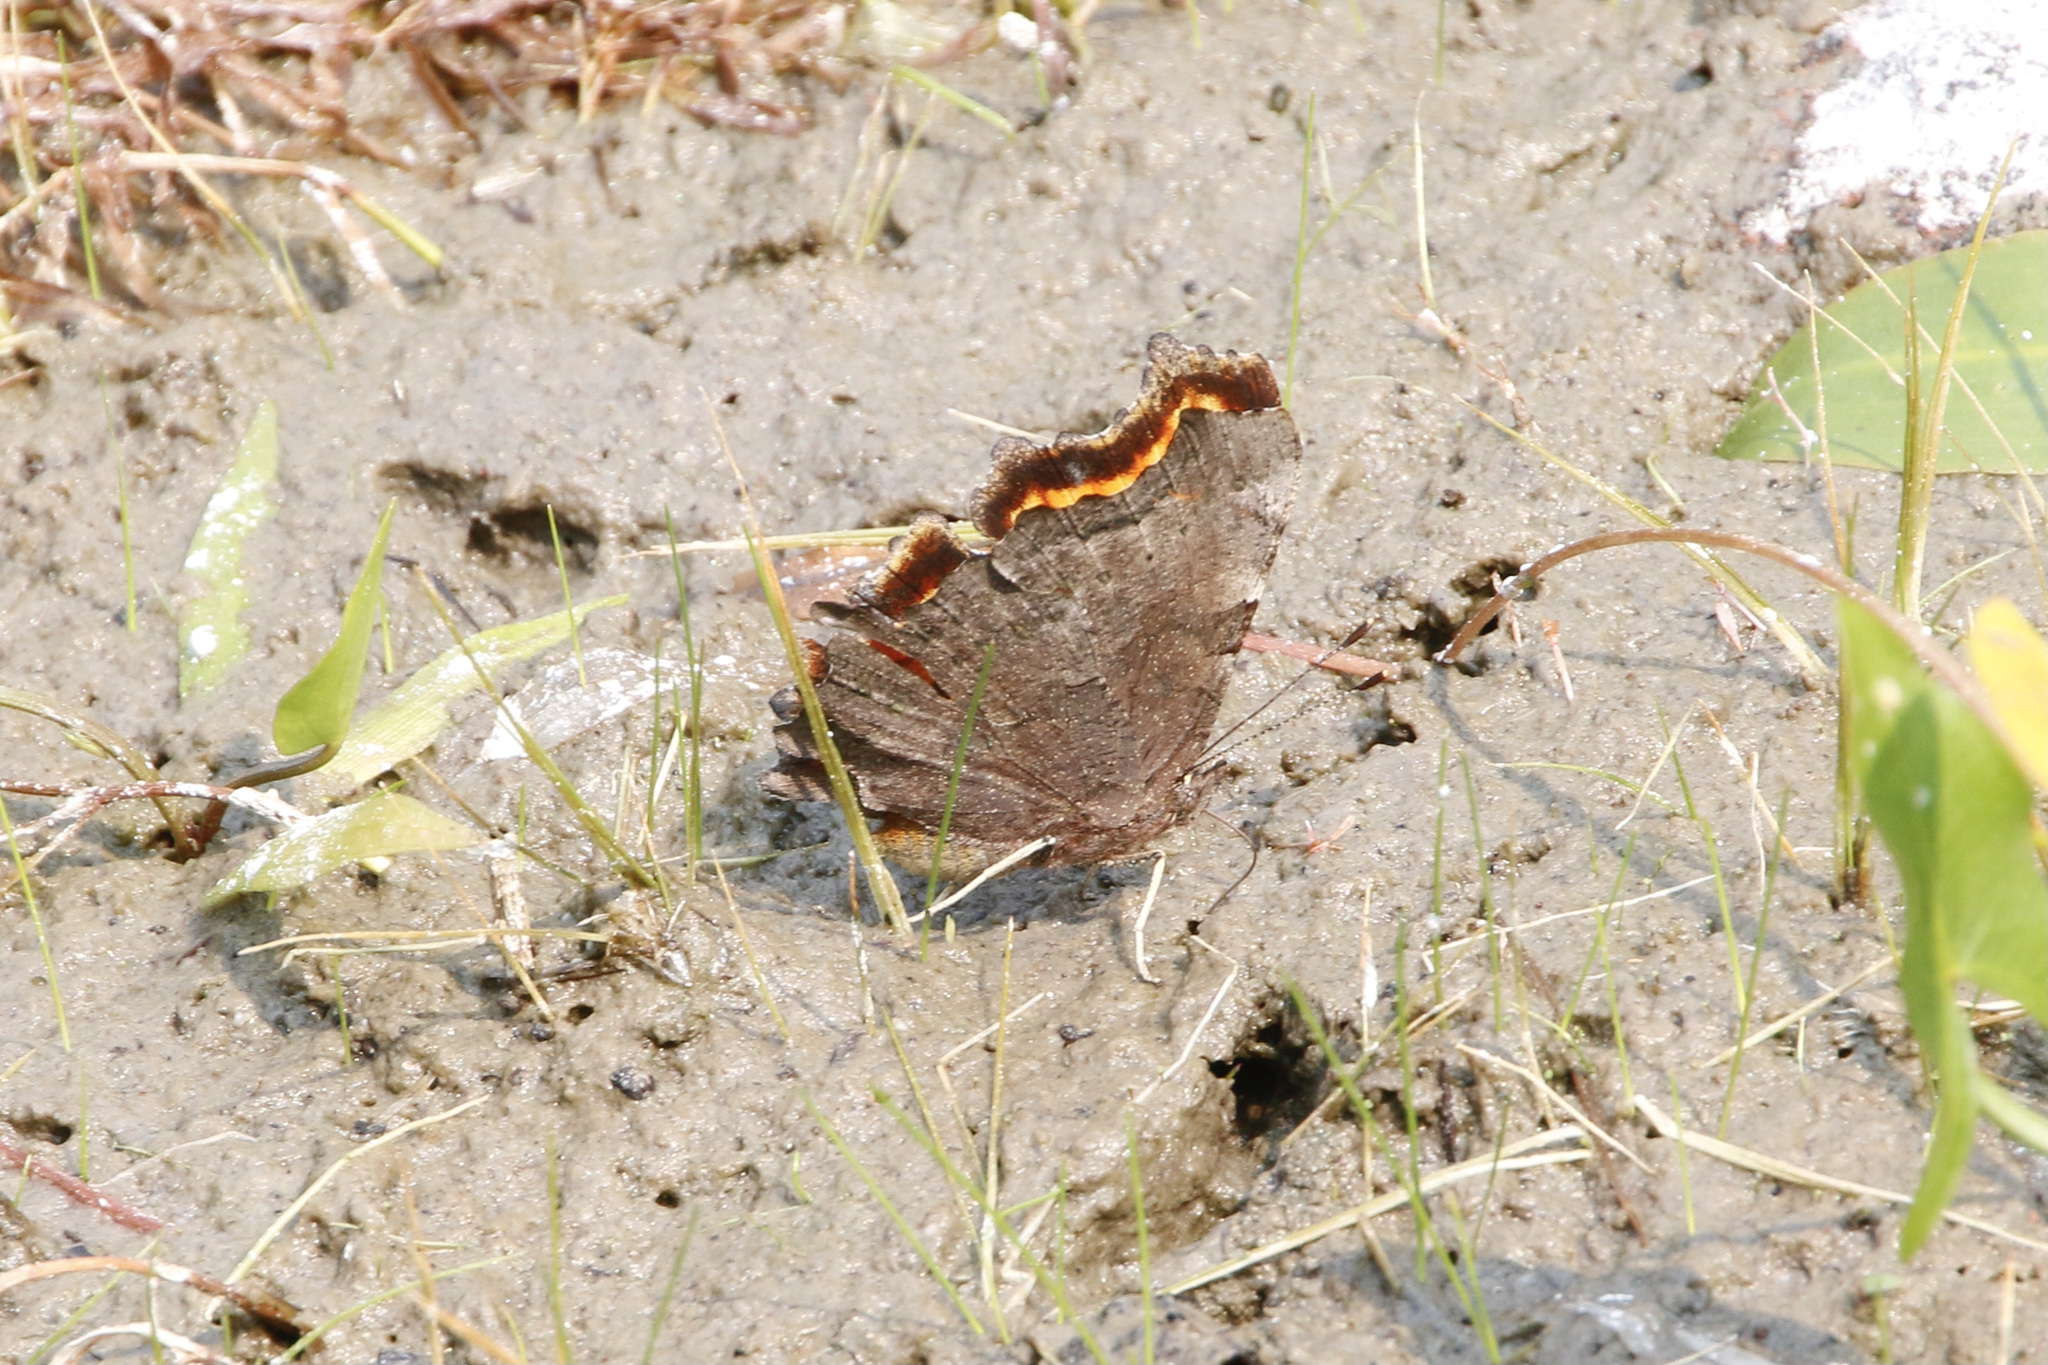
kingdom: Animalia
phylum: Arthropoda
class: Insecta
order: Lepidoptera
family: Nymphalidae
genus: Polygonia
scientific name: Polygonia faunus
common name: Green comma
